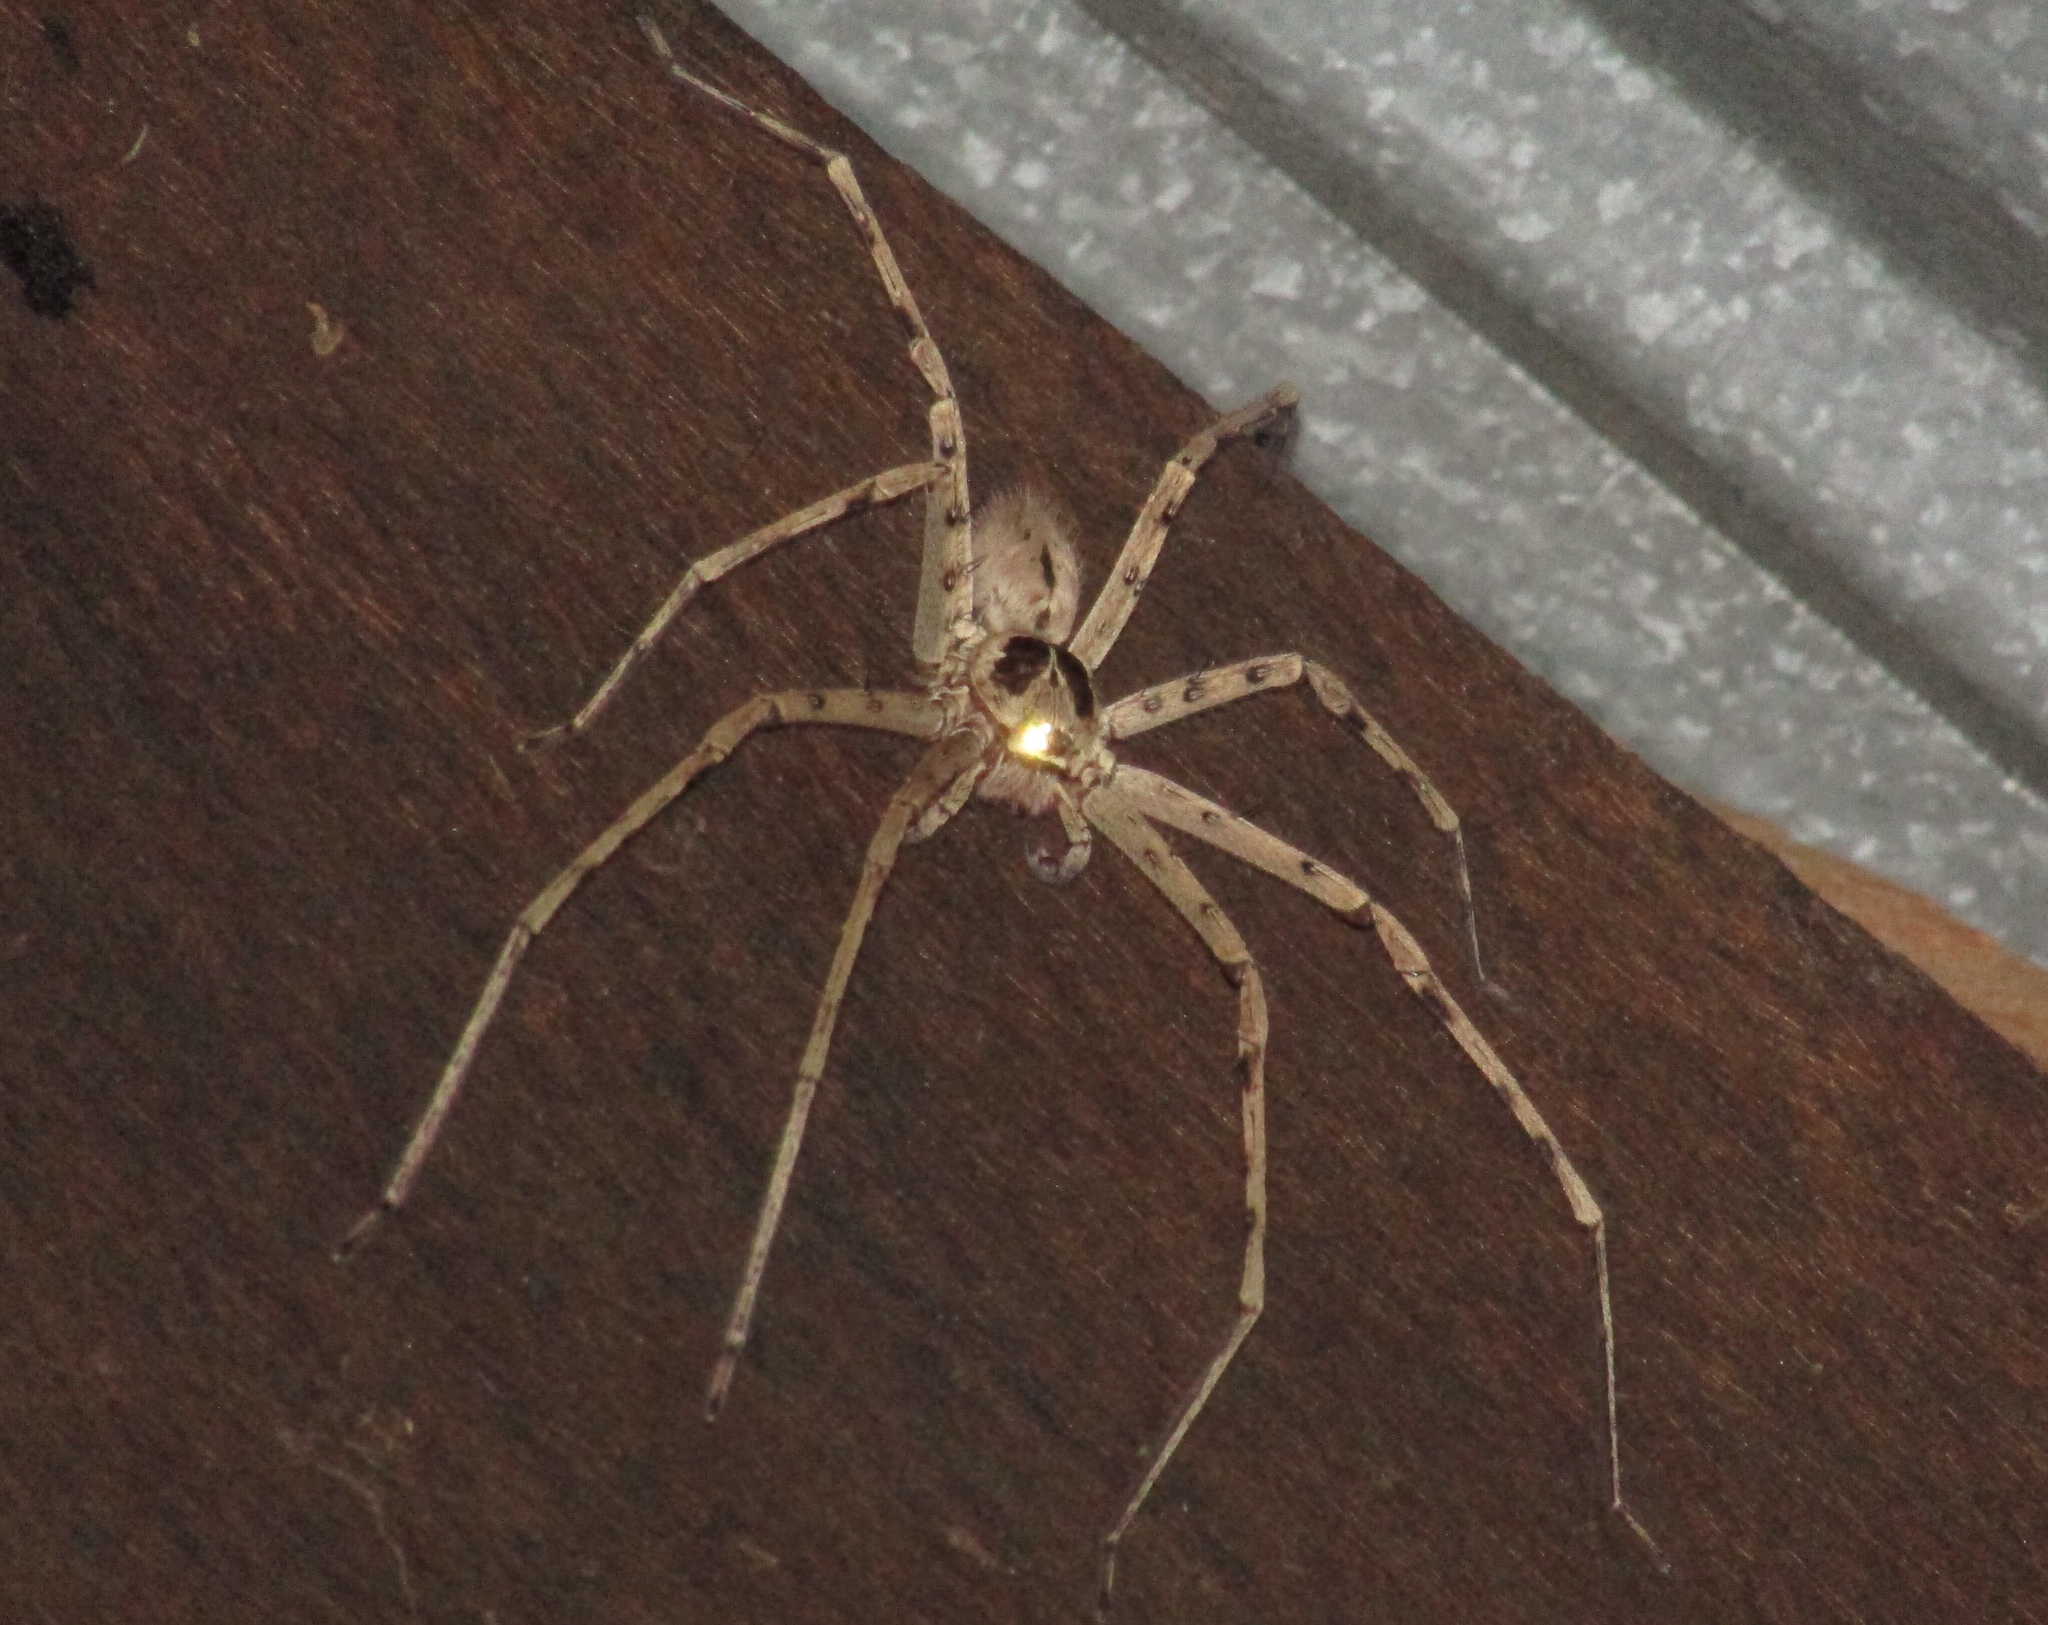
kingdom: Animalia
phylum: Arthropoda
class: Arachnida
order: Araneae
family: Sparassidae
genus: Heteropoda
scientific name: Heteropoda venatoria
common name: Huntsman spider
